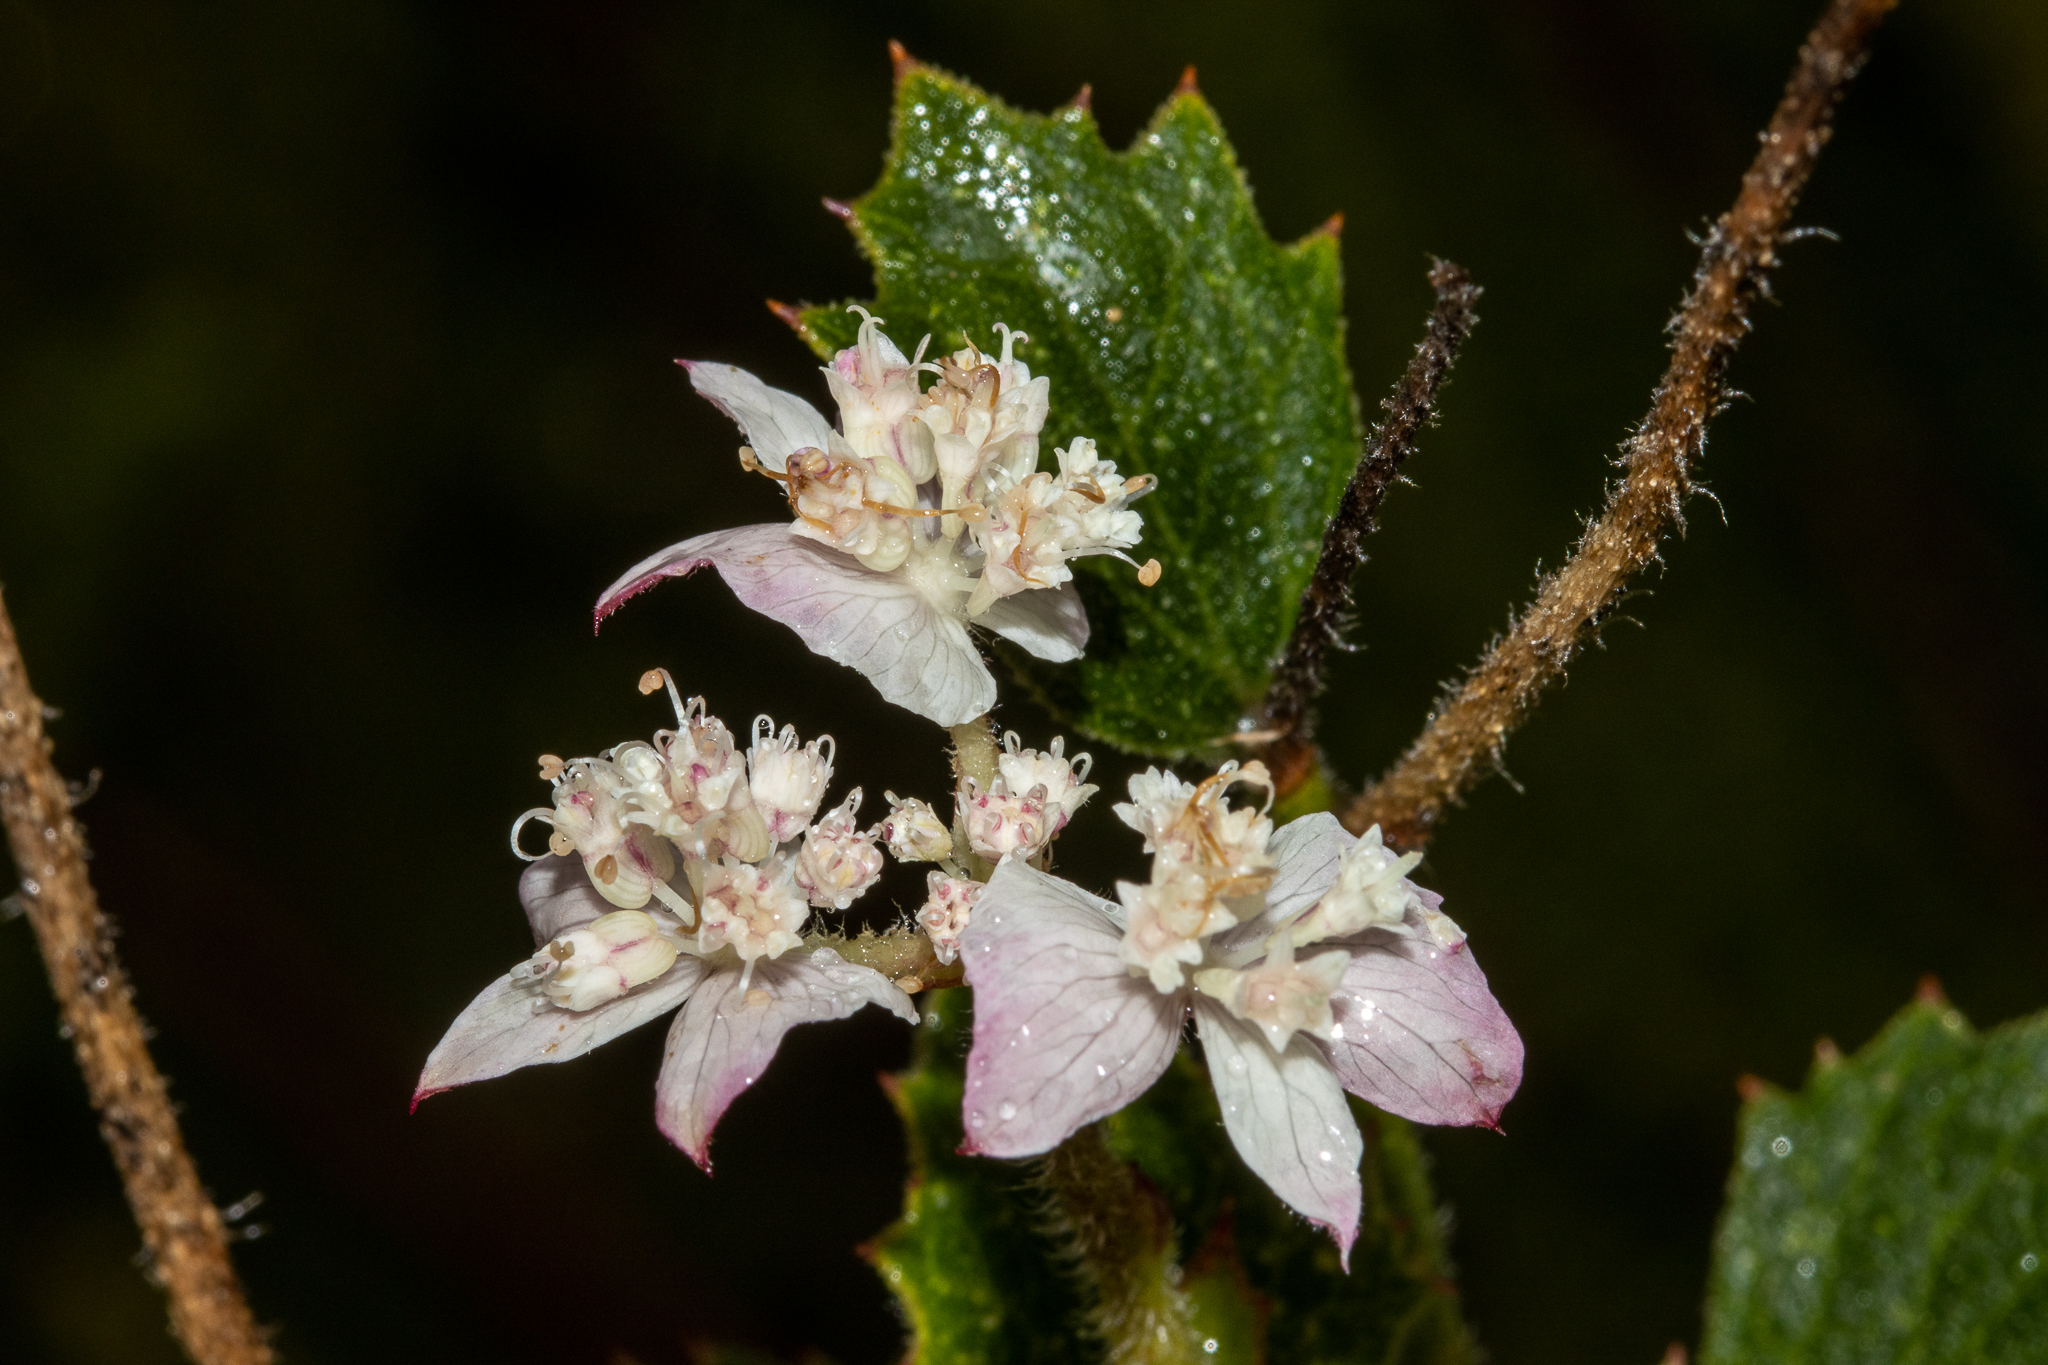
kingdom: Plantae
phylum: Tracheophyta
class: Magnoliopsida
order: Apiales
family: Apiaceae
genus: Xanthosia
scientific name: Xanthosia rotundifolia
